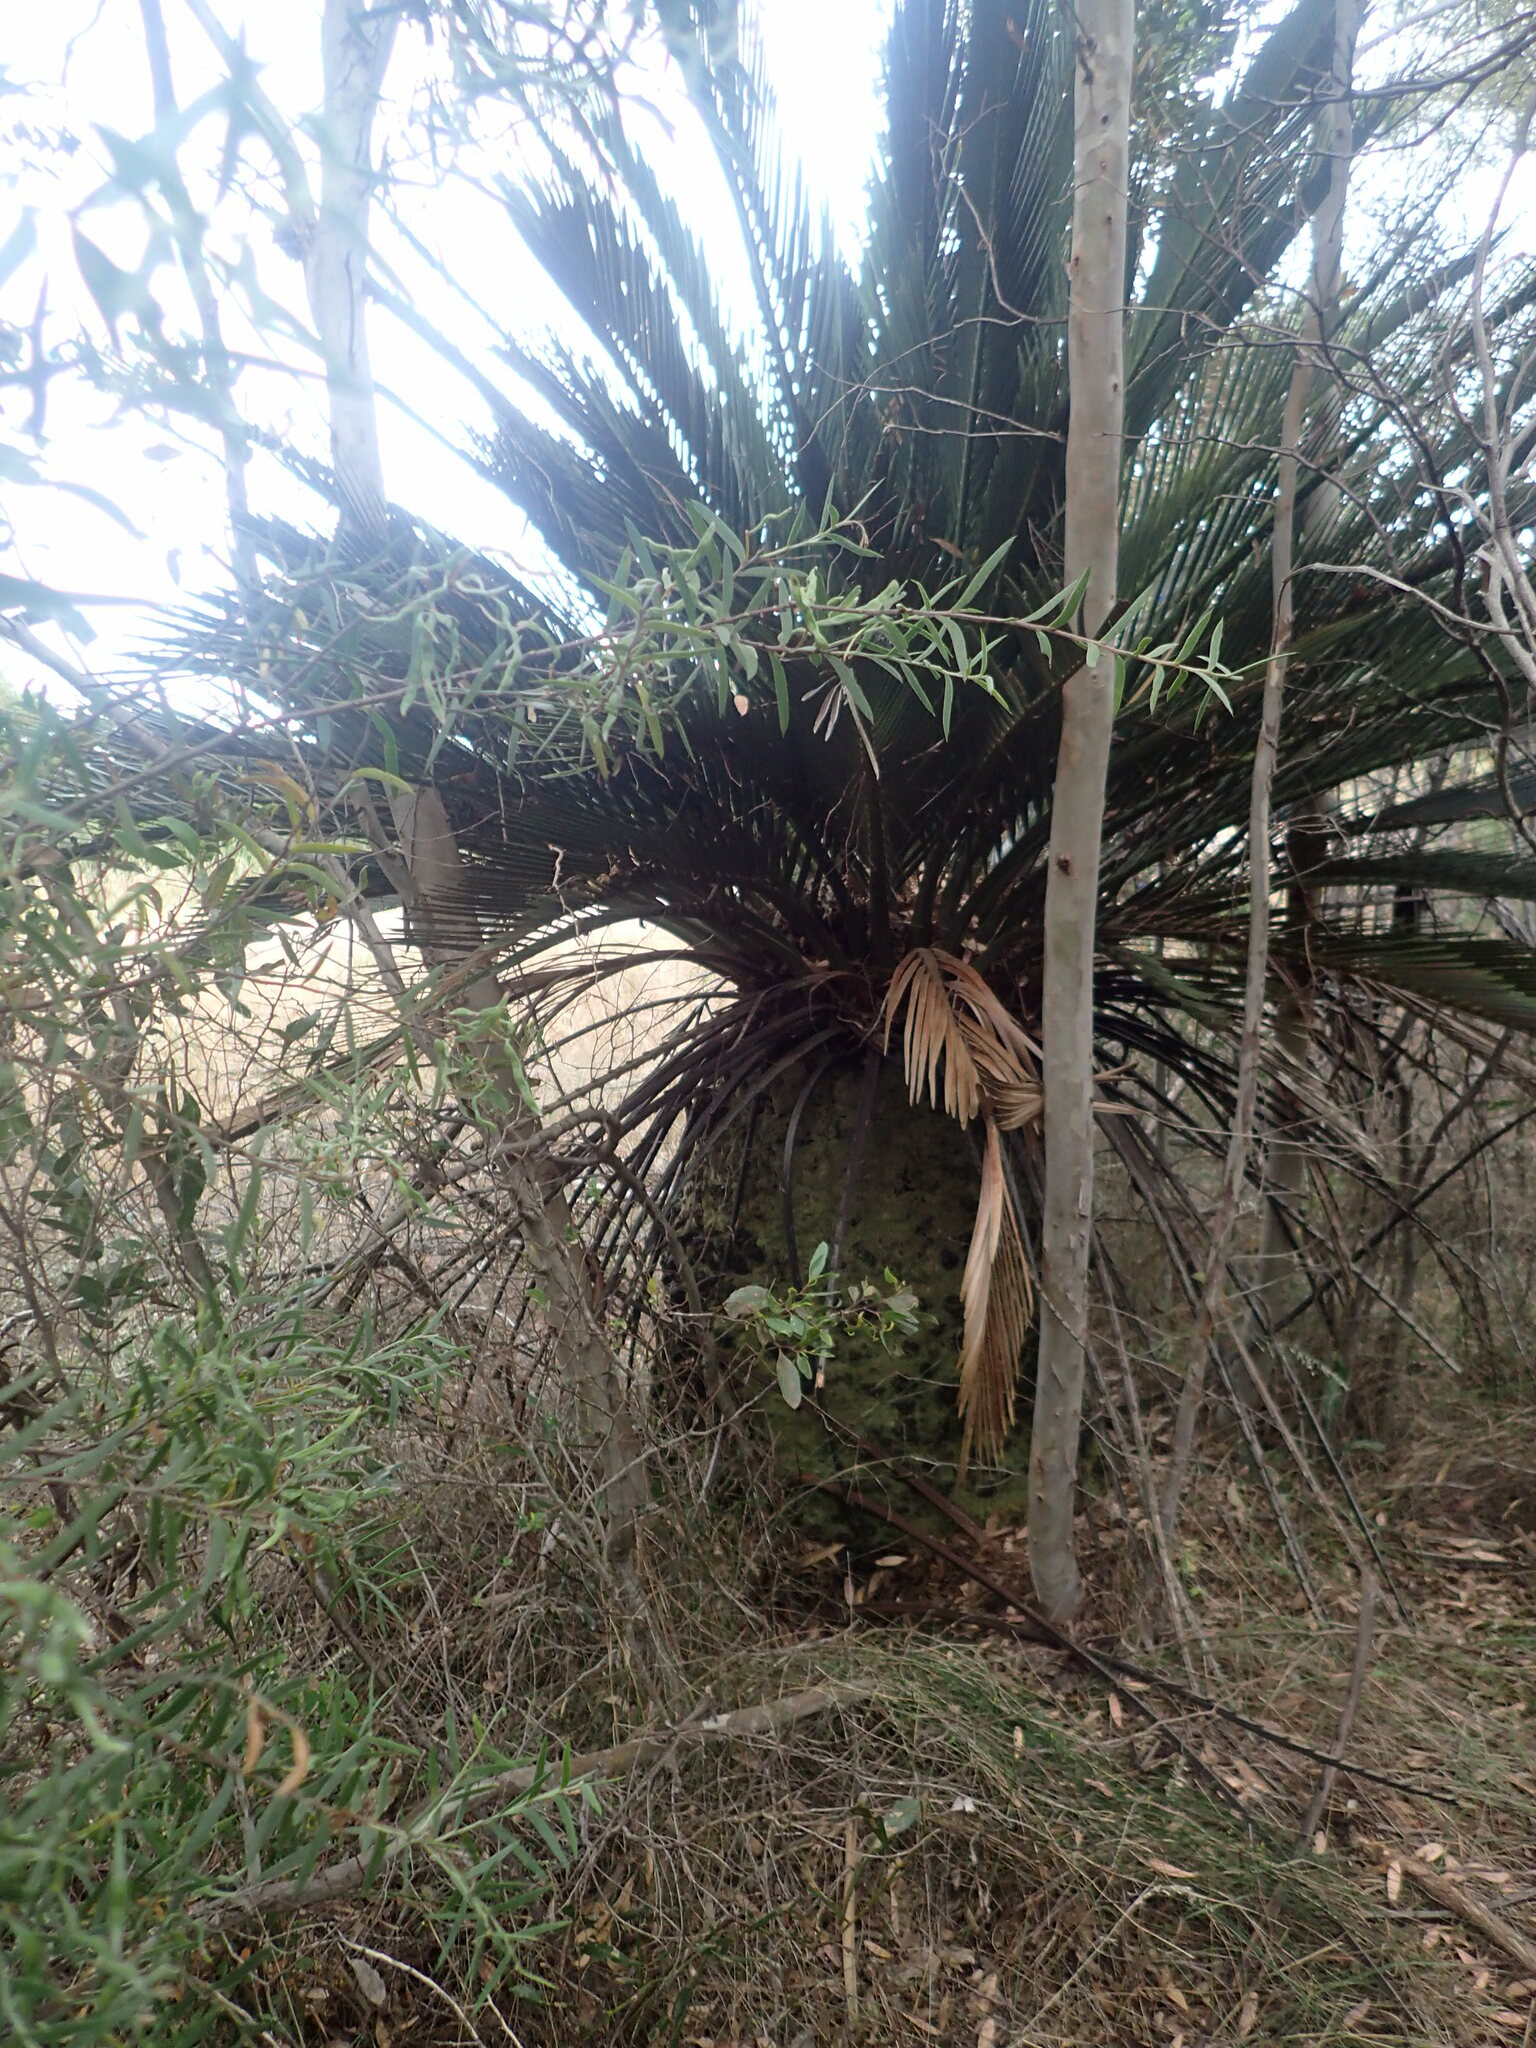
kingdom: Plantae
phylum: Bryophyta
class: Bryopsida
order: Hypnales
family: Fabroniaceae
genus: Fabronia
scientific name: Fabronia hampeana
